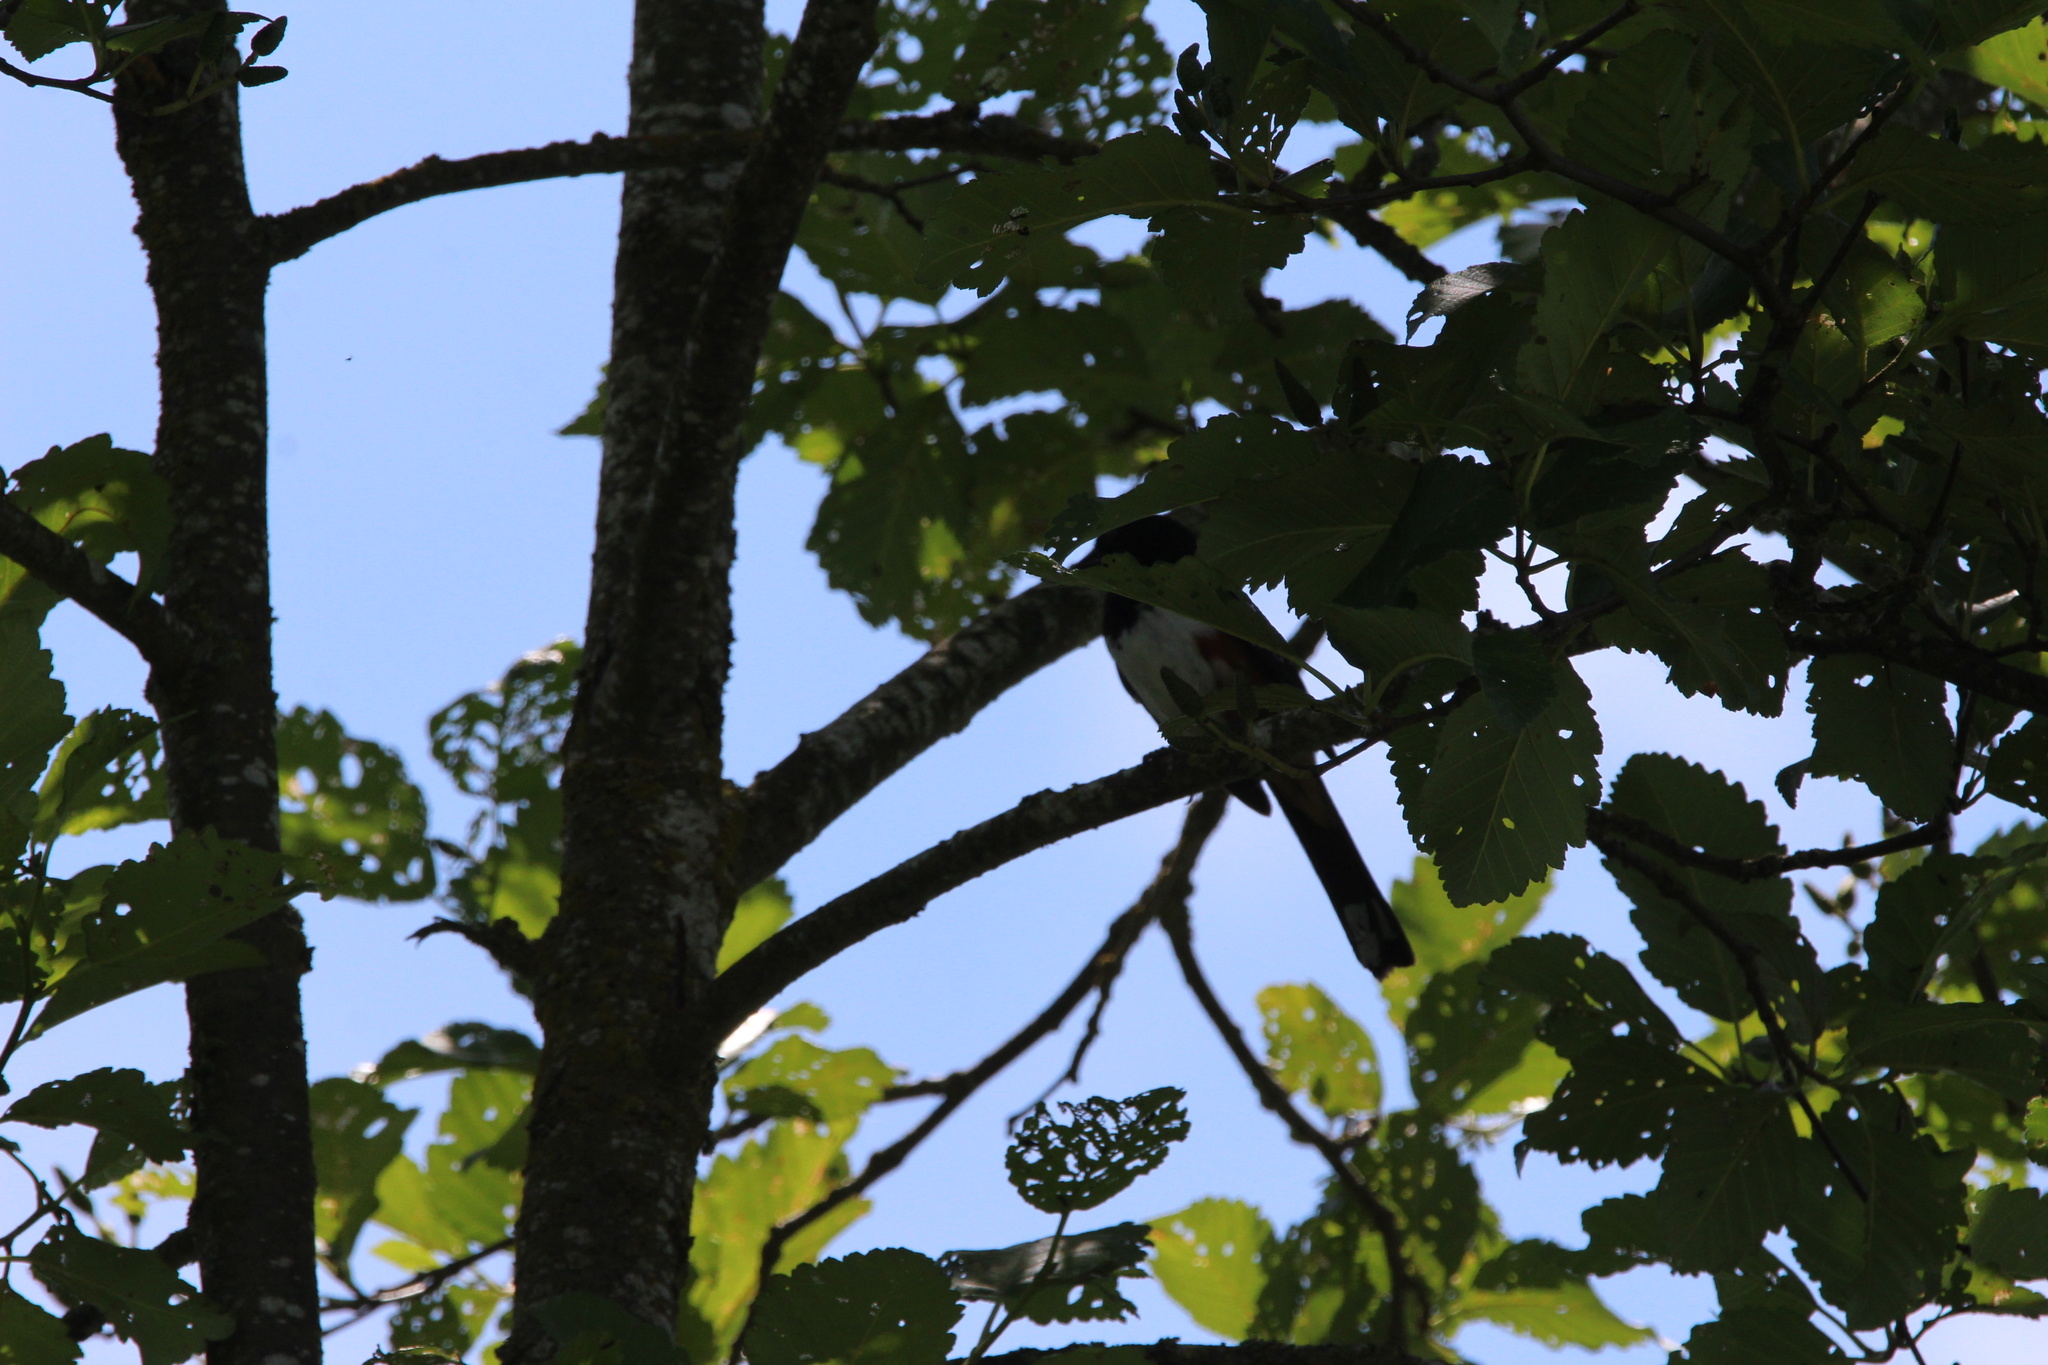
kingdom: Animalia
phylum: Chordata
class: Aves
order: Passeriformes
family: Passerellidae
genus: Pipilo
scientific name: Pipilo maculatus
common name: Spotted towhee
